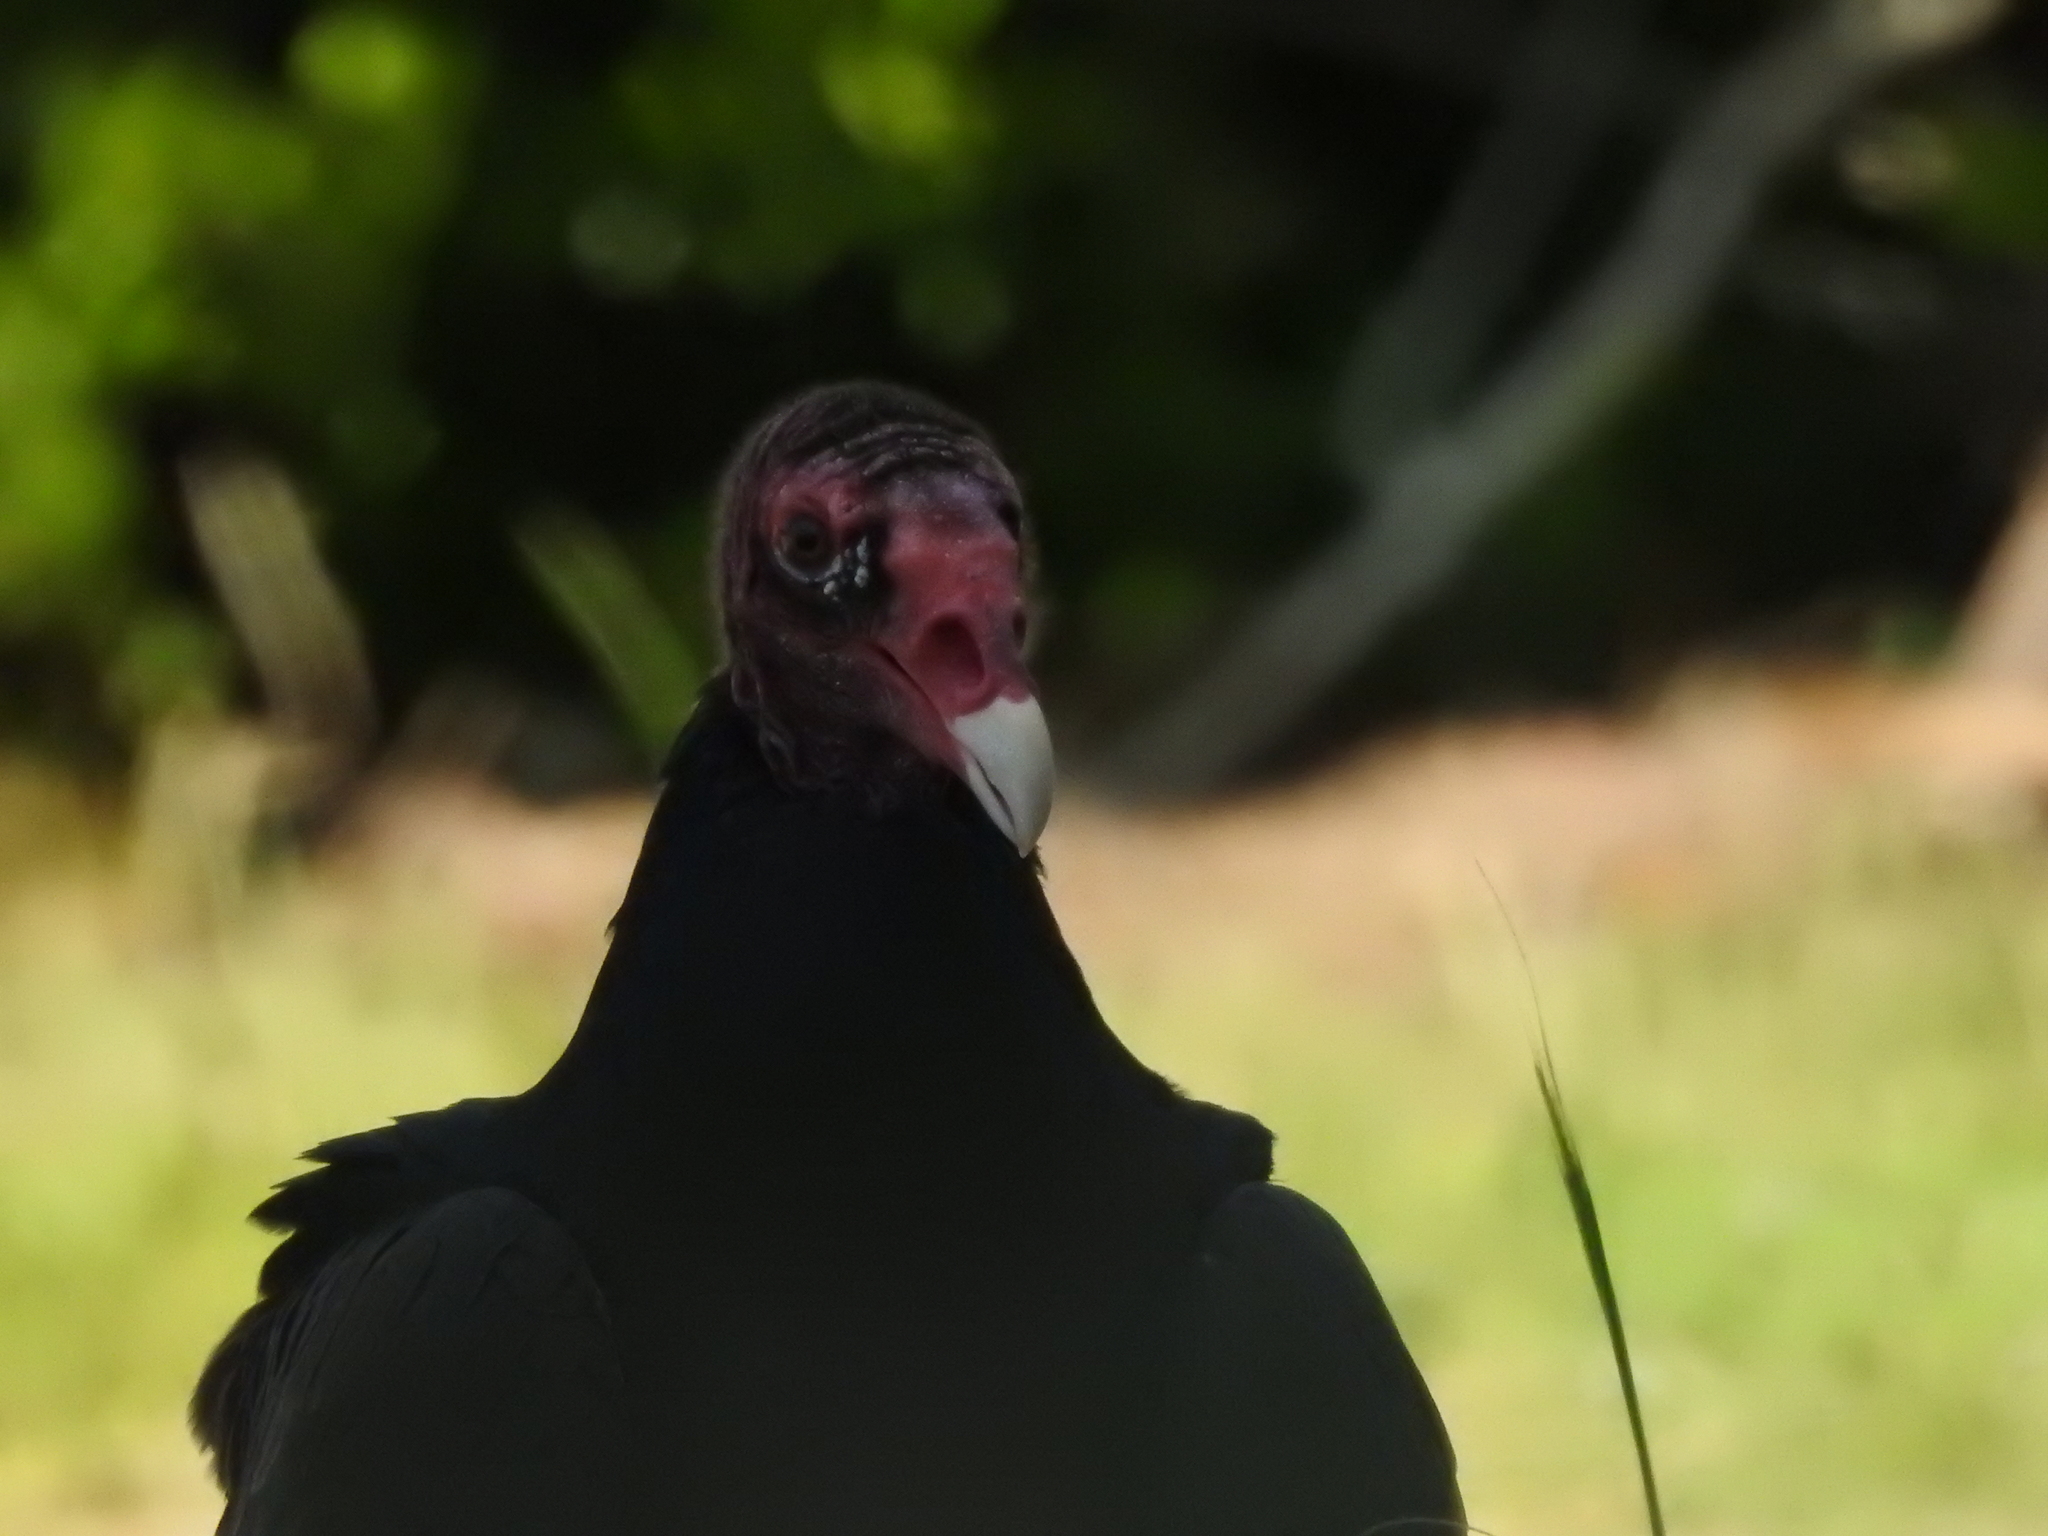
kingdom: Animalia
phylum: Chordata
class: Aves
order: Accipitriformes
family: Cathartidae
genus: Cathartes
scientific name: Cathartes aura
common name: Turkey vulture
